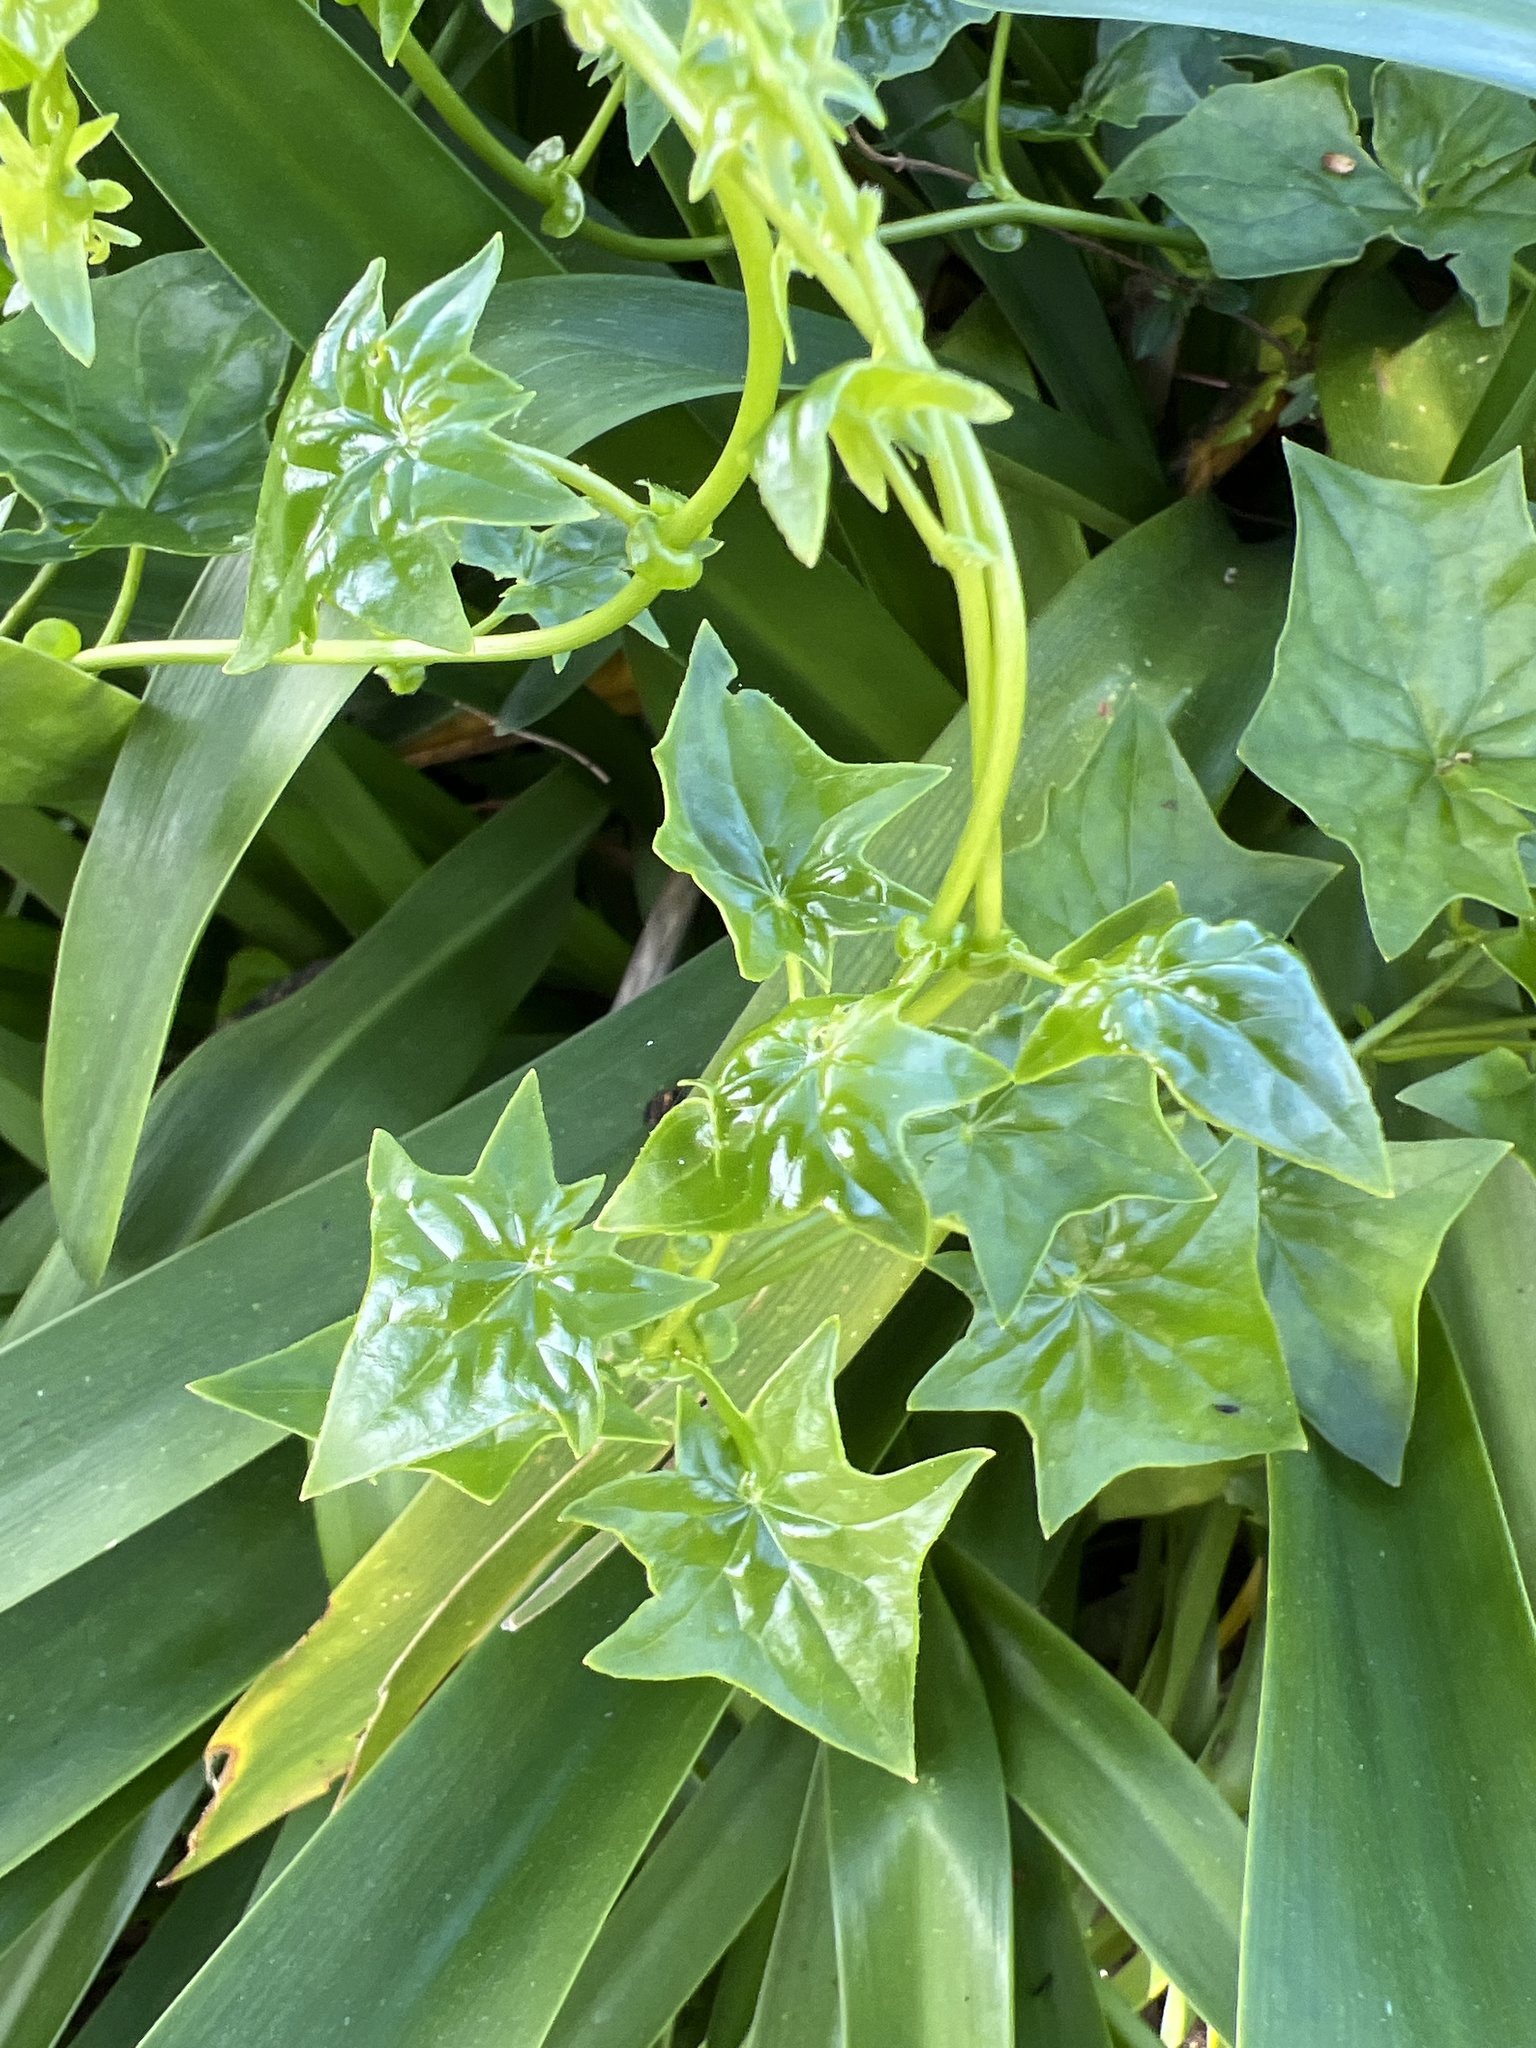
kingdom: Plantae
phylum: Tracheophyta
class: Magnoliopsida
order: Asterales
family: Asteraceae
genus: Delairea
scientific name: Delairea odorata
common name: Cape-ivy
